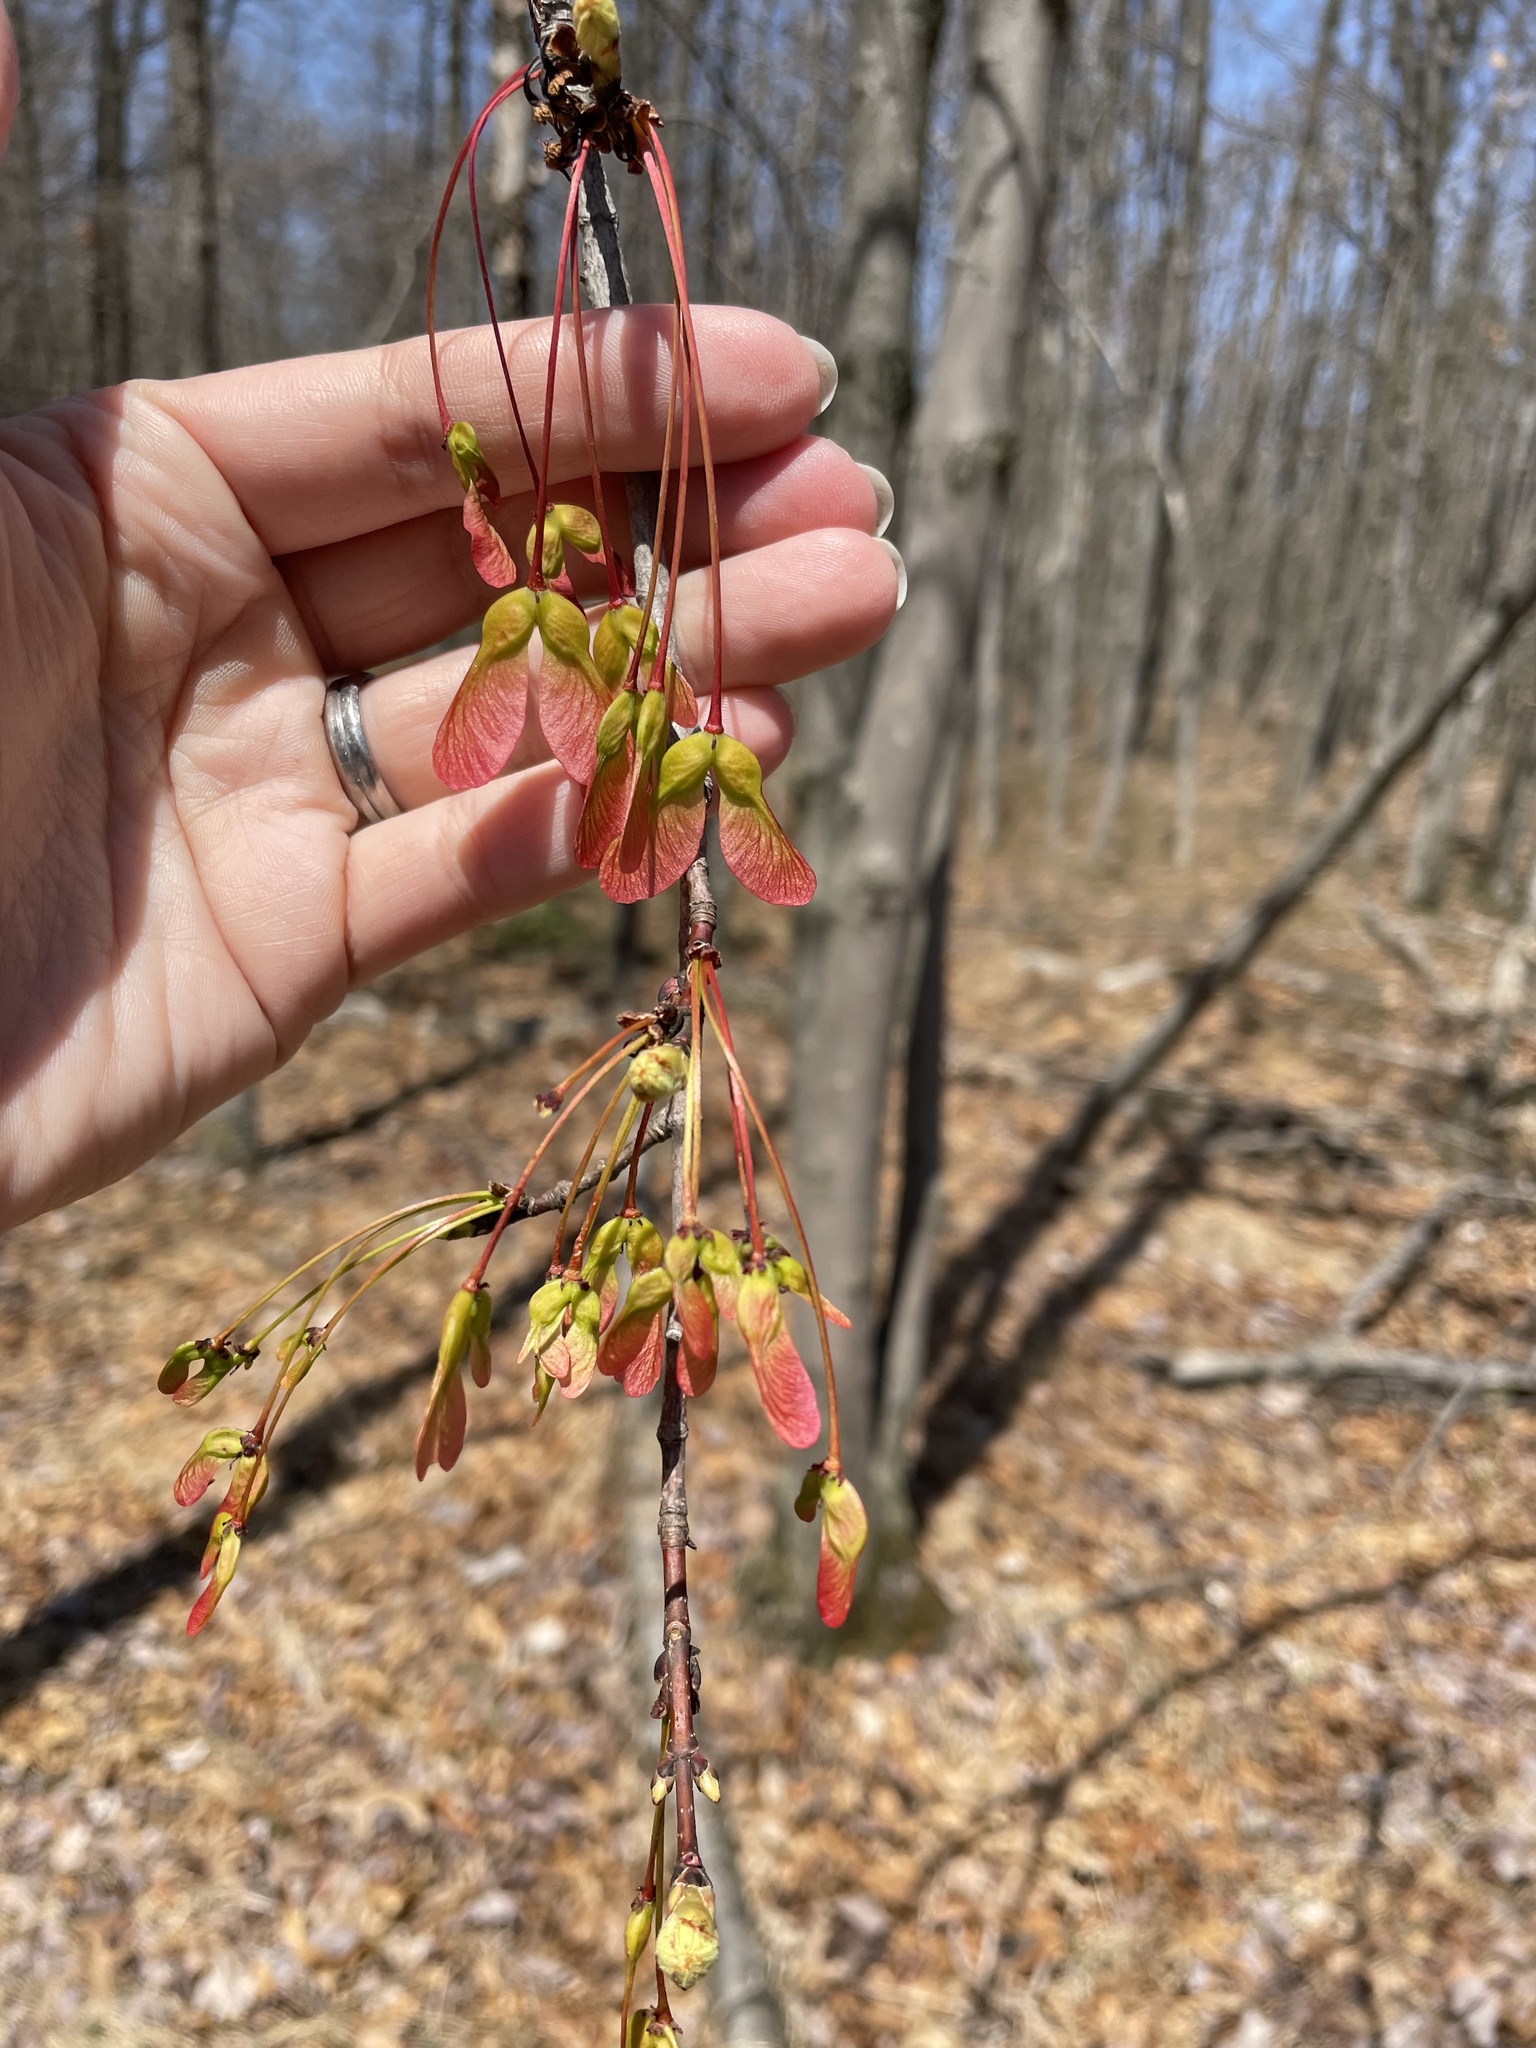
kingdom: Plantae
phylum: Tracheophyta
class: Magnoliopsida
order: Sapindales
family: Sapindaceae
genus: Acer
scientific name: Acer rubrum
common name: Red maple
